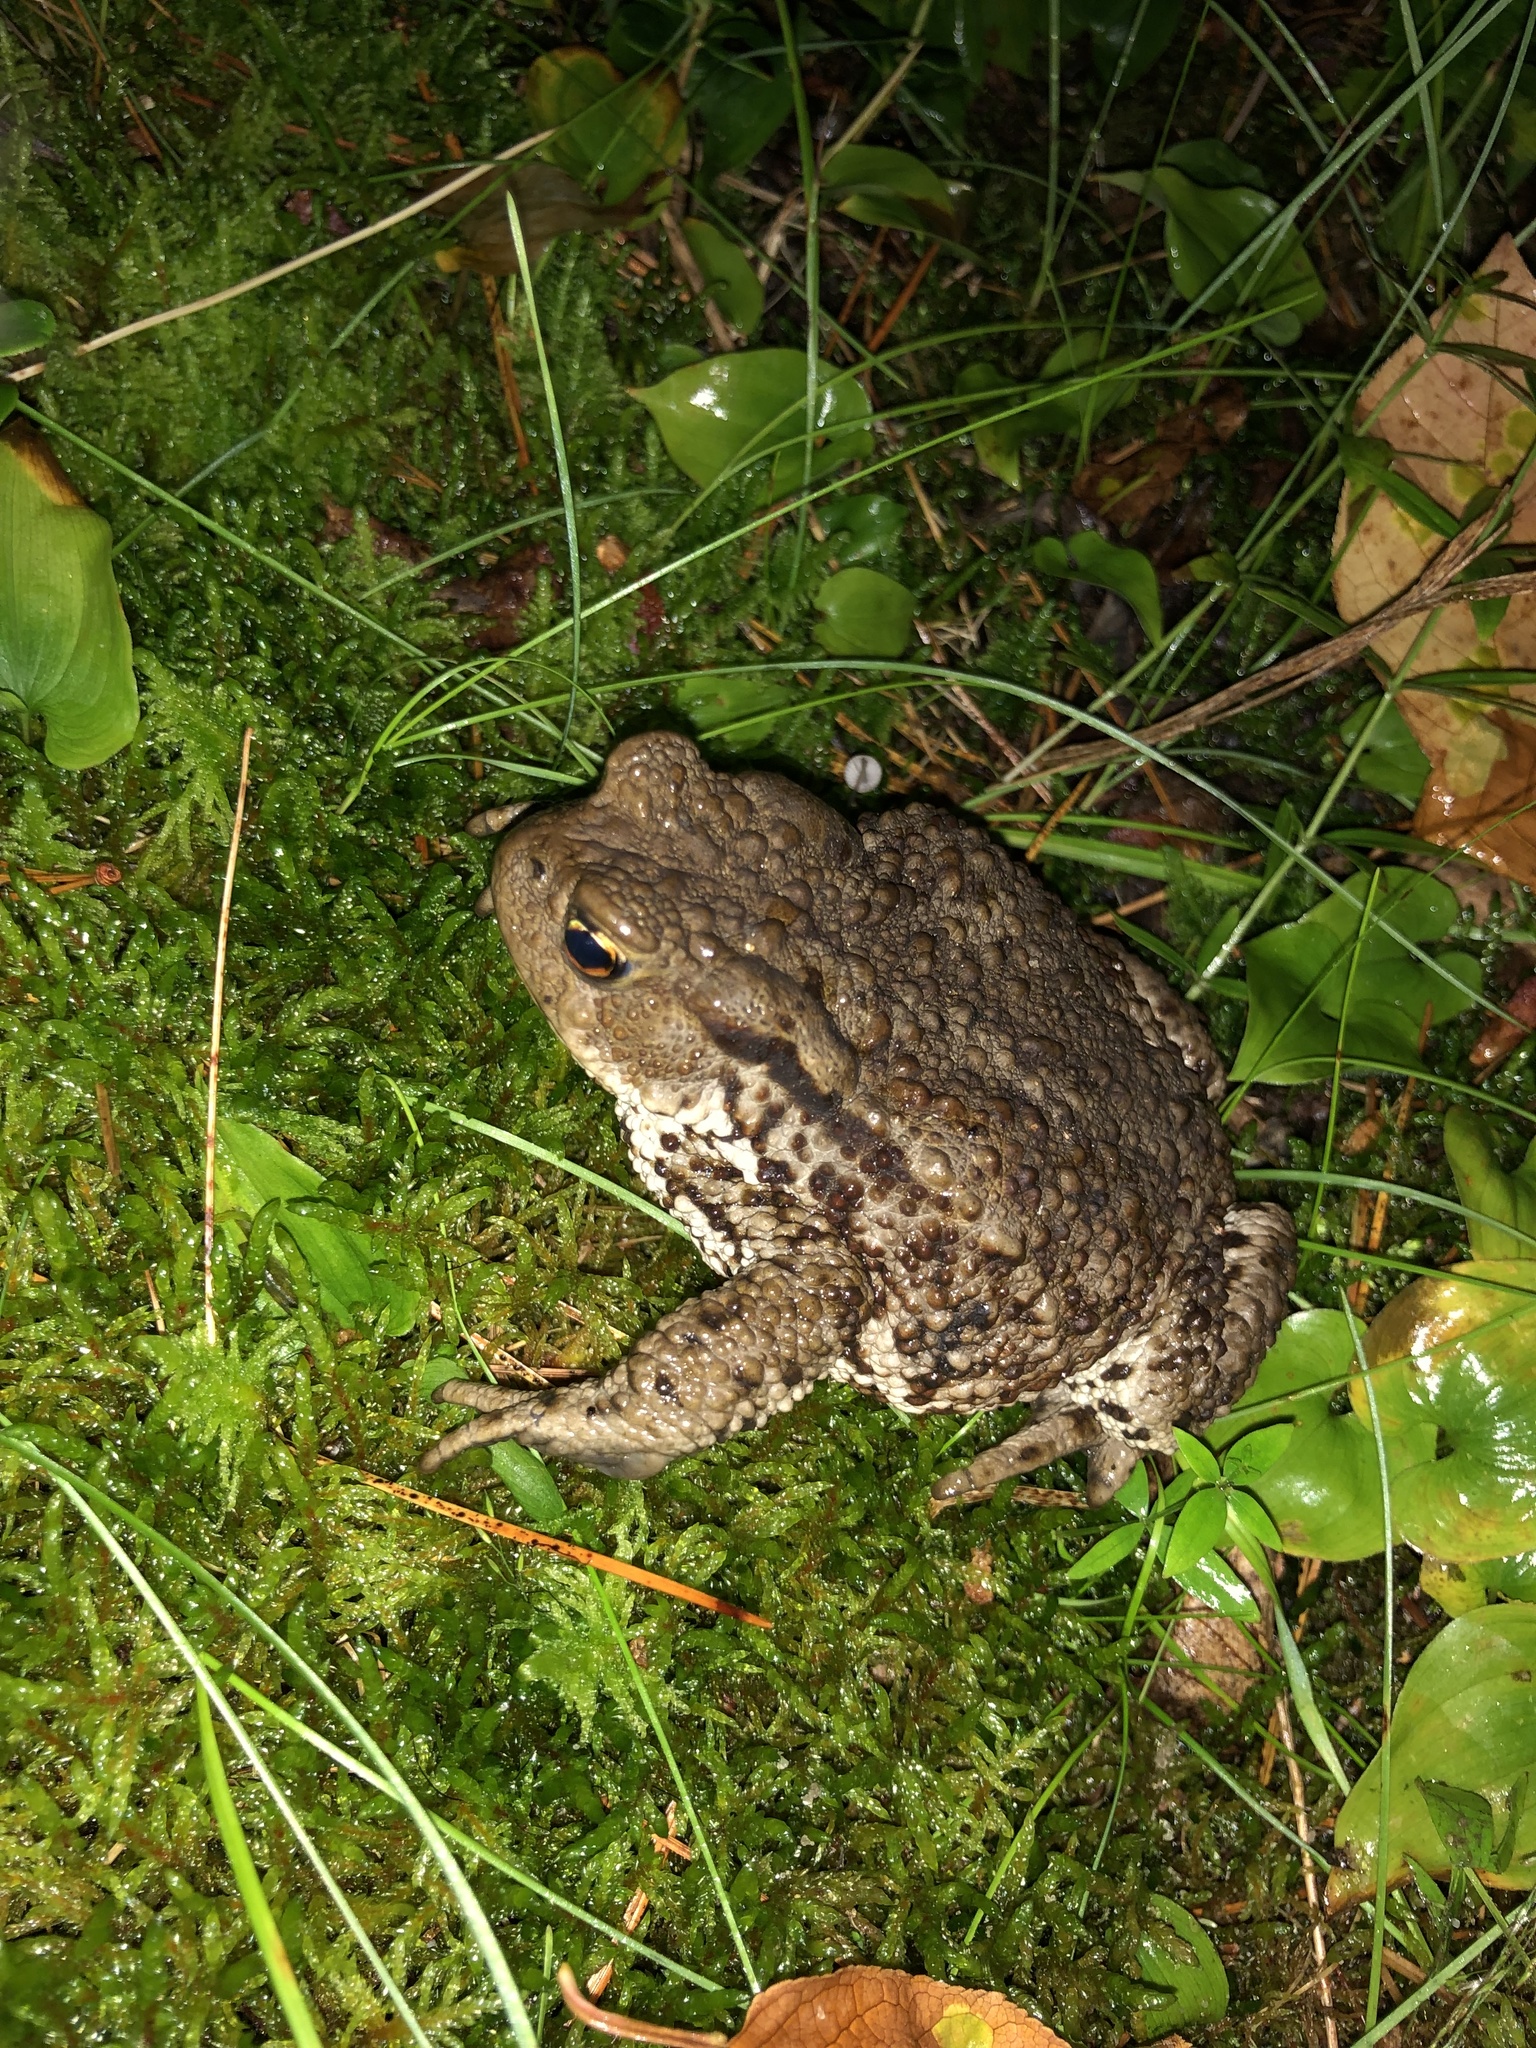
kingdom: Animalia
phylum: Chordata
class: Amphibia
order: Anura
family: Bufonidae
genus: Bufo
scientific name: Bufo bufo
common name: Common toad
